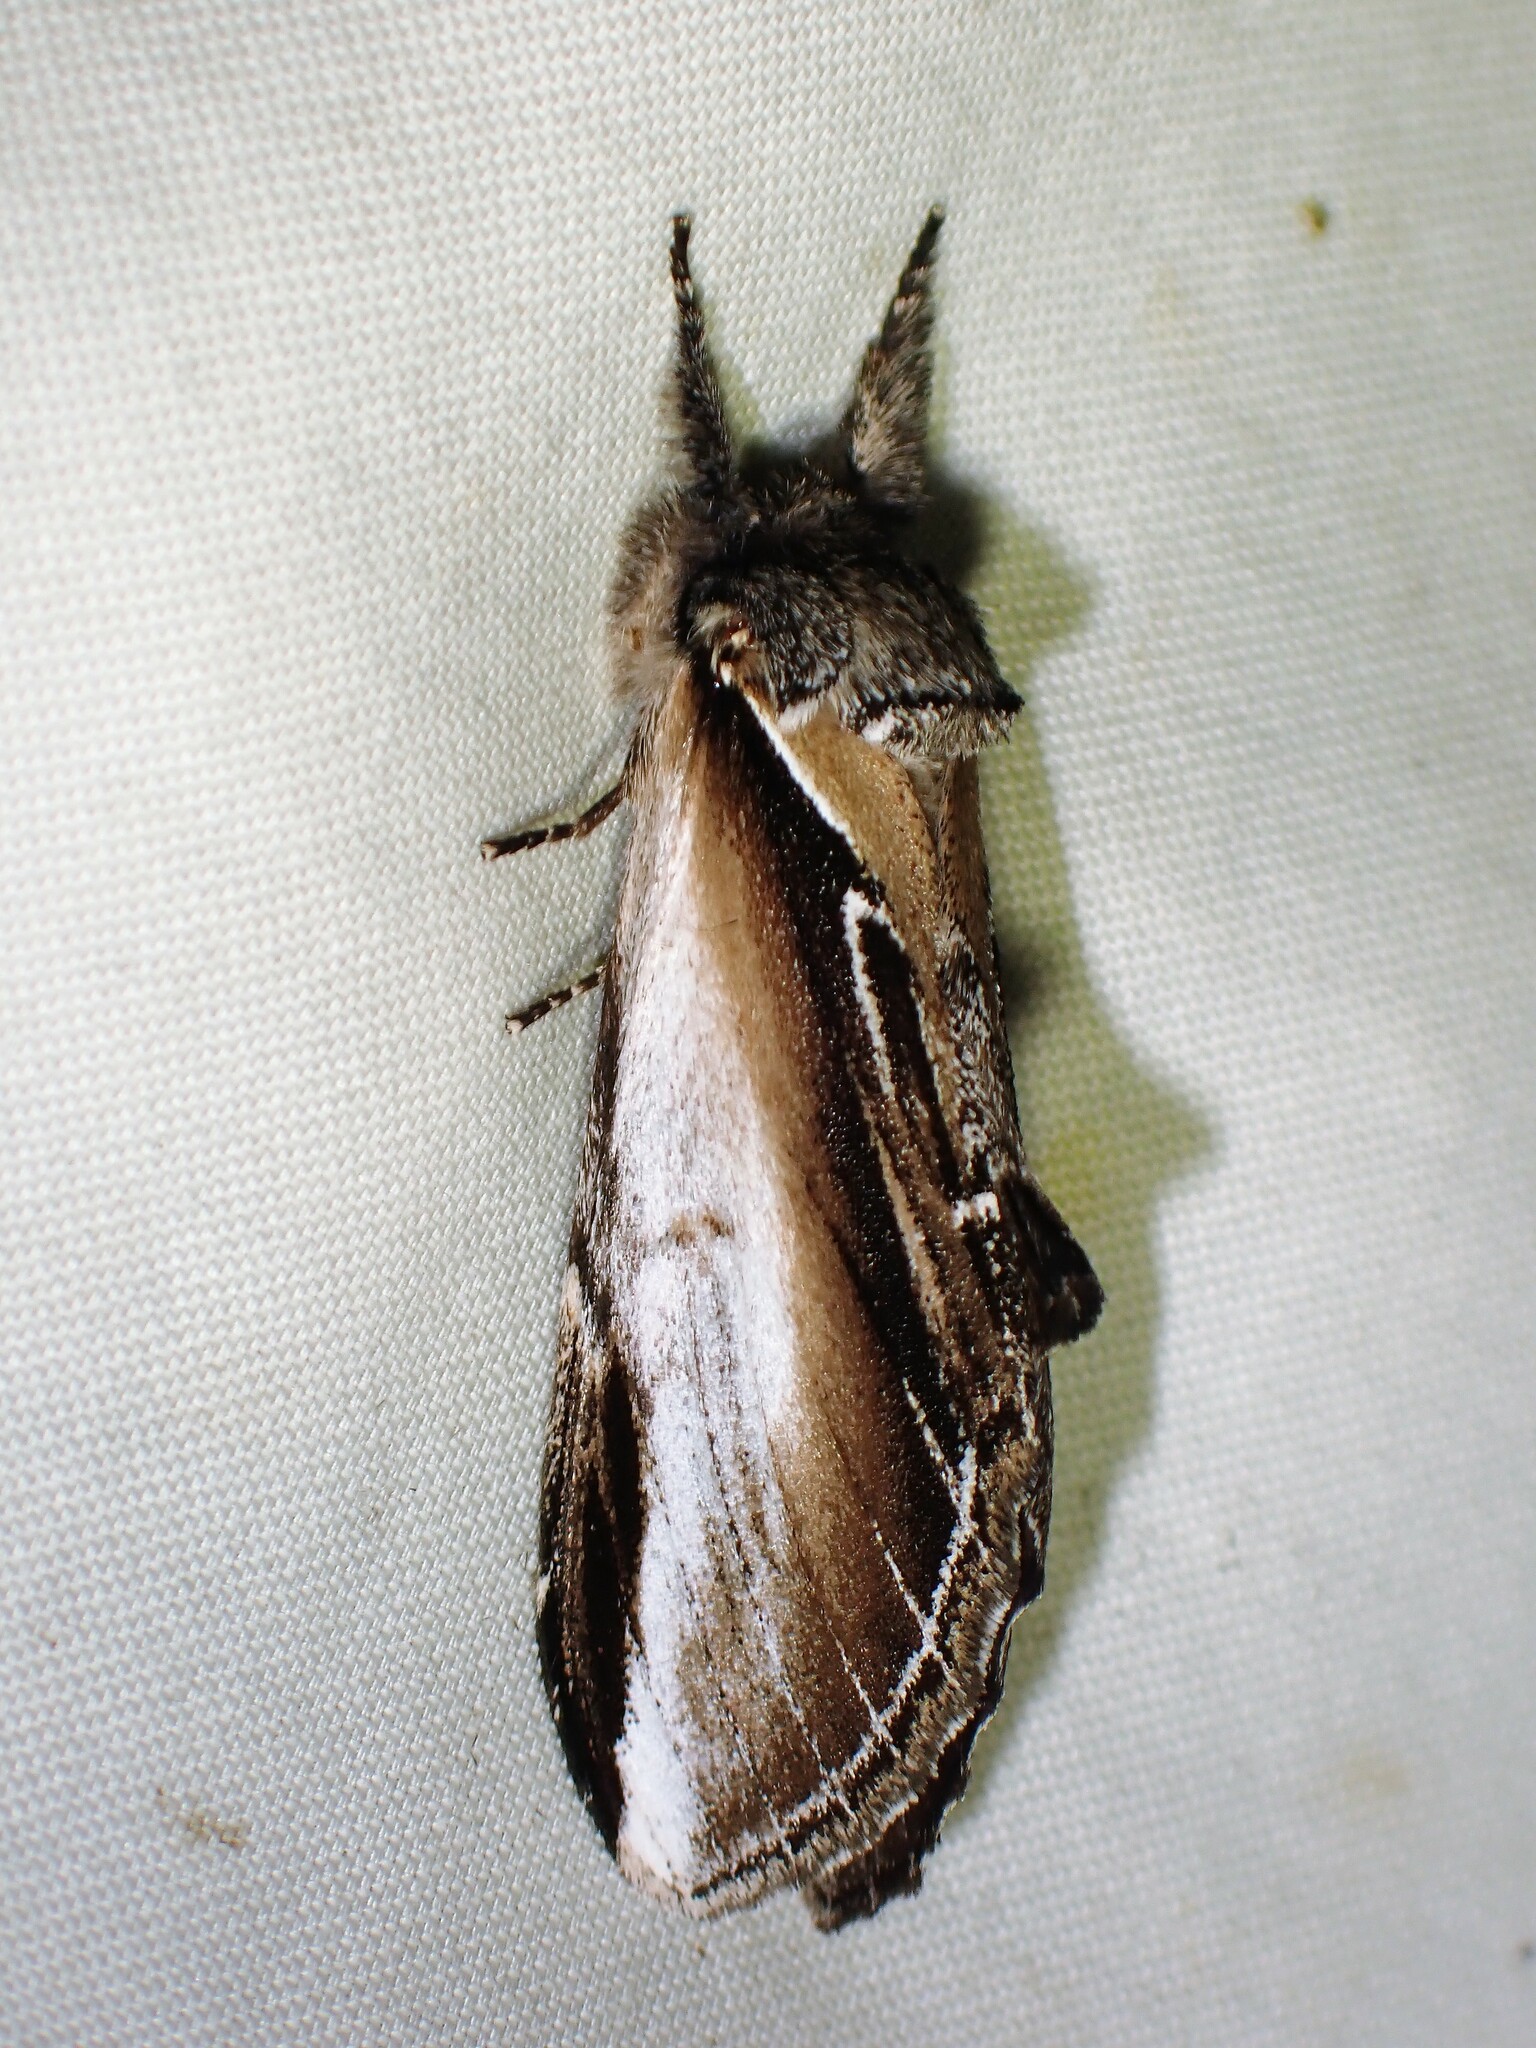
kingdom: Animalia
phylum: Arthropoda
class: Insecta
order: Lepidoptera
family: Notodontidae
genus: Pheosia
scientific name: Pheosia rimosa
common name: Black-rimmed prominent
